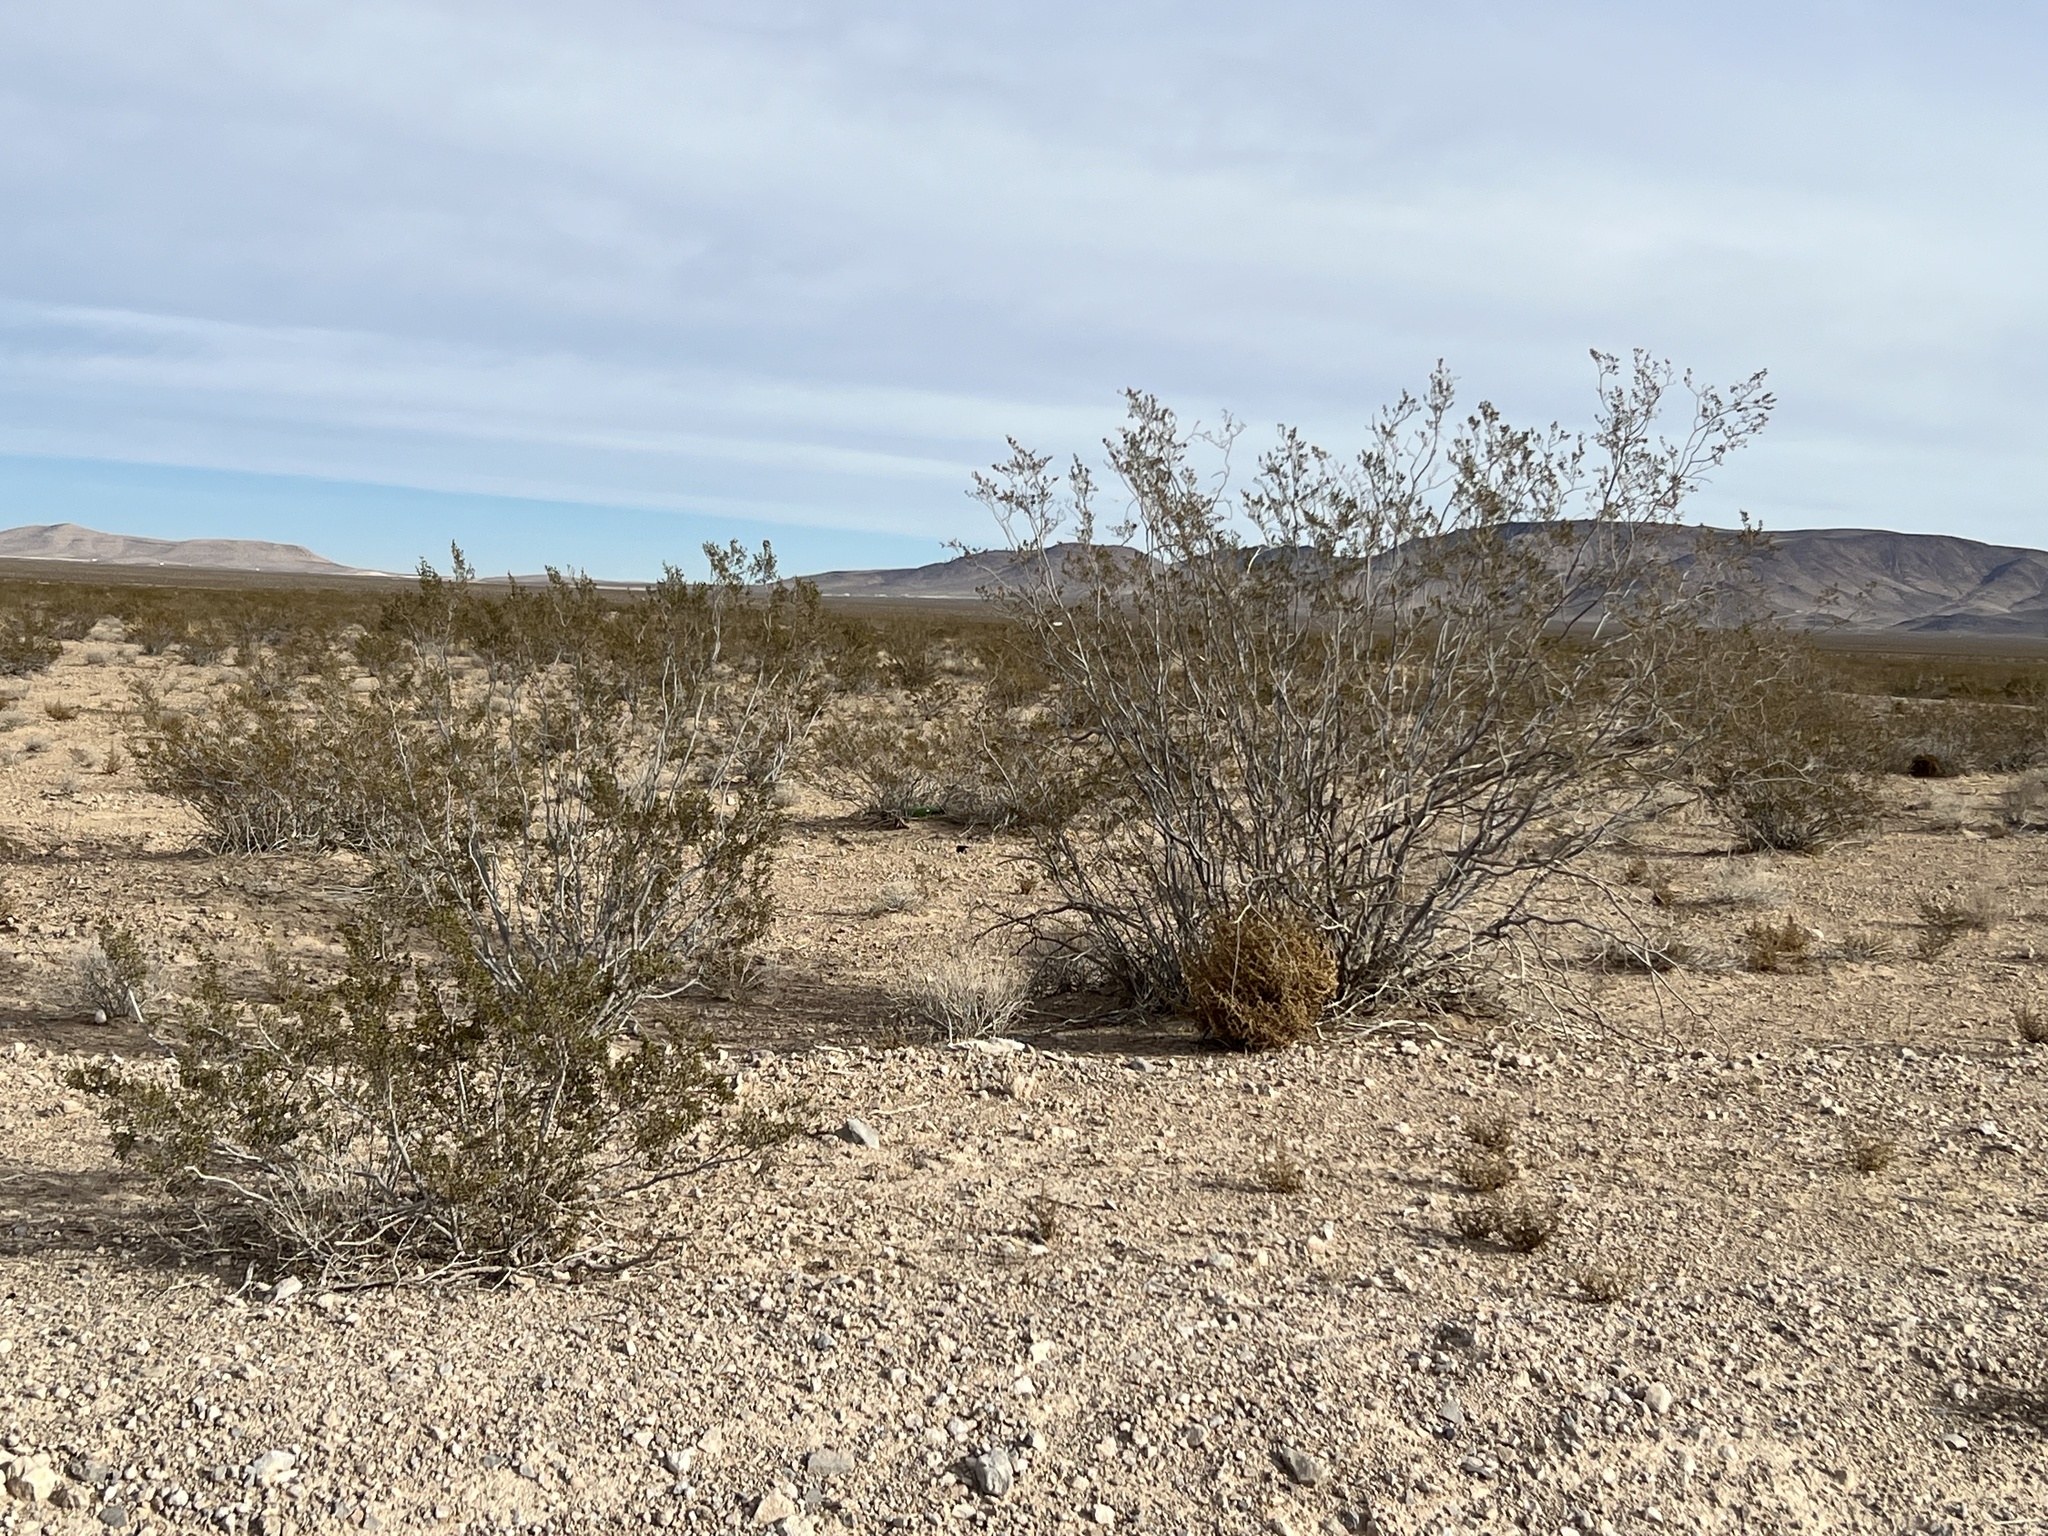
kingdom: Plantae
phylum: Tracheophyta
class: Magnoliopsida
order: Zygophyllales
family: Zygophyllaceae
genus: Larrea
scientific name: Larrea tridentata
